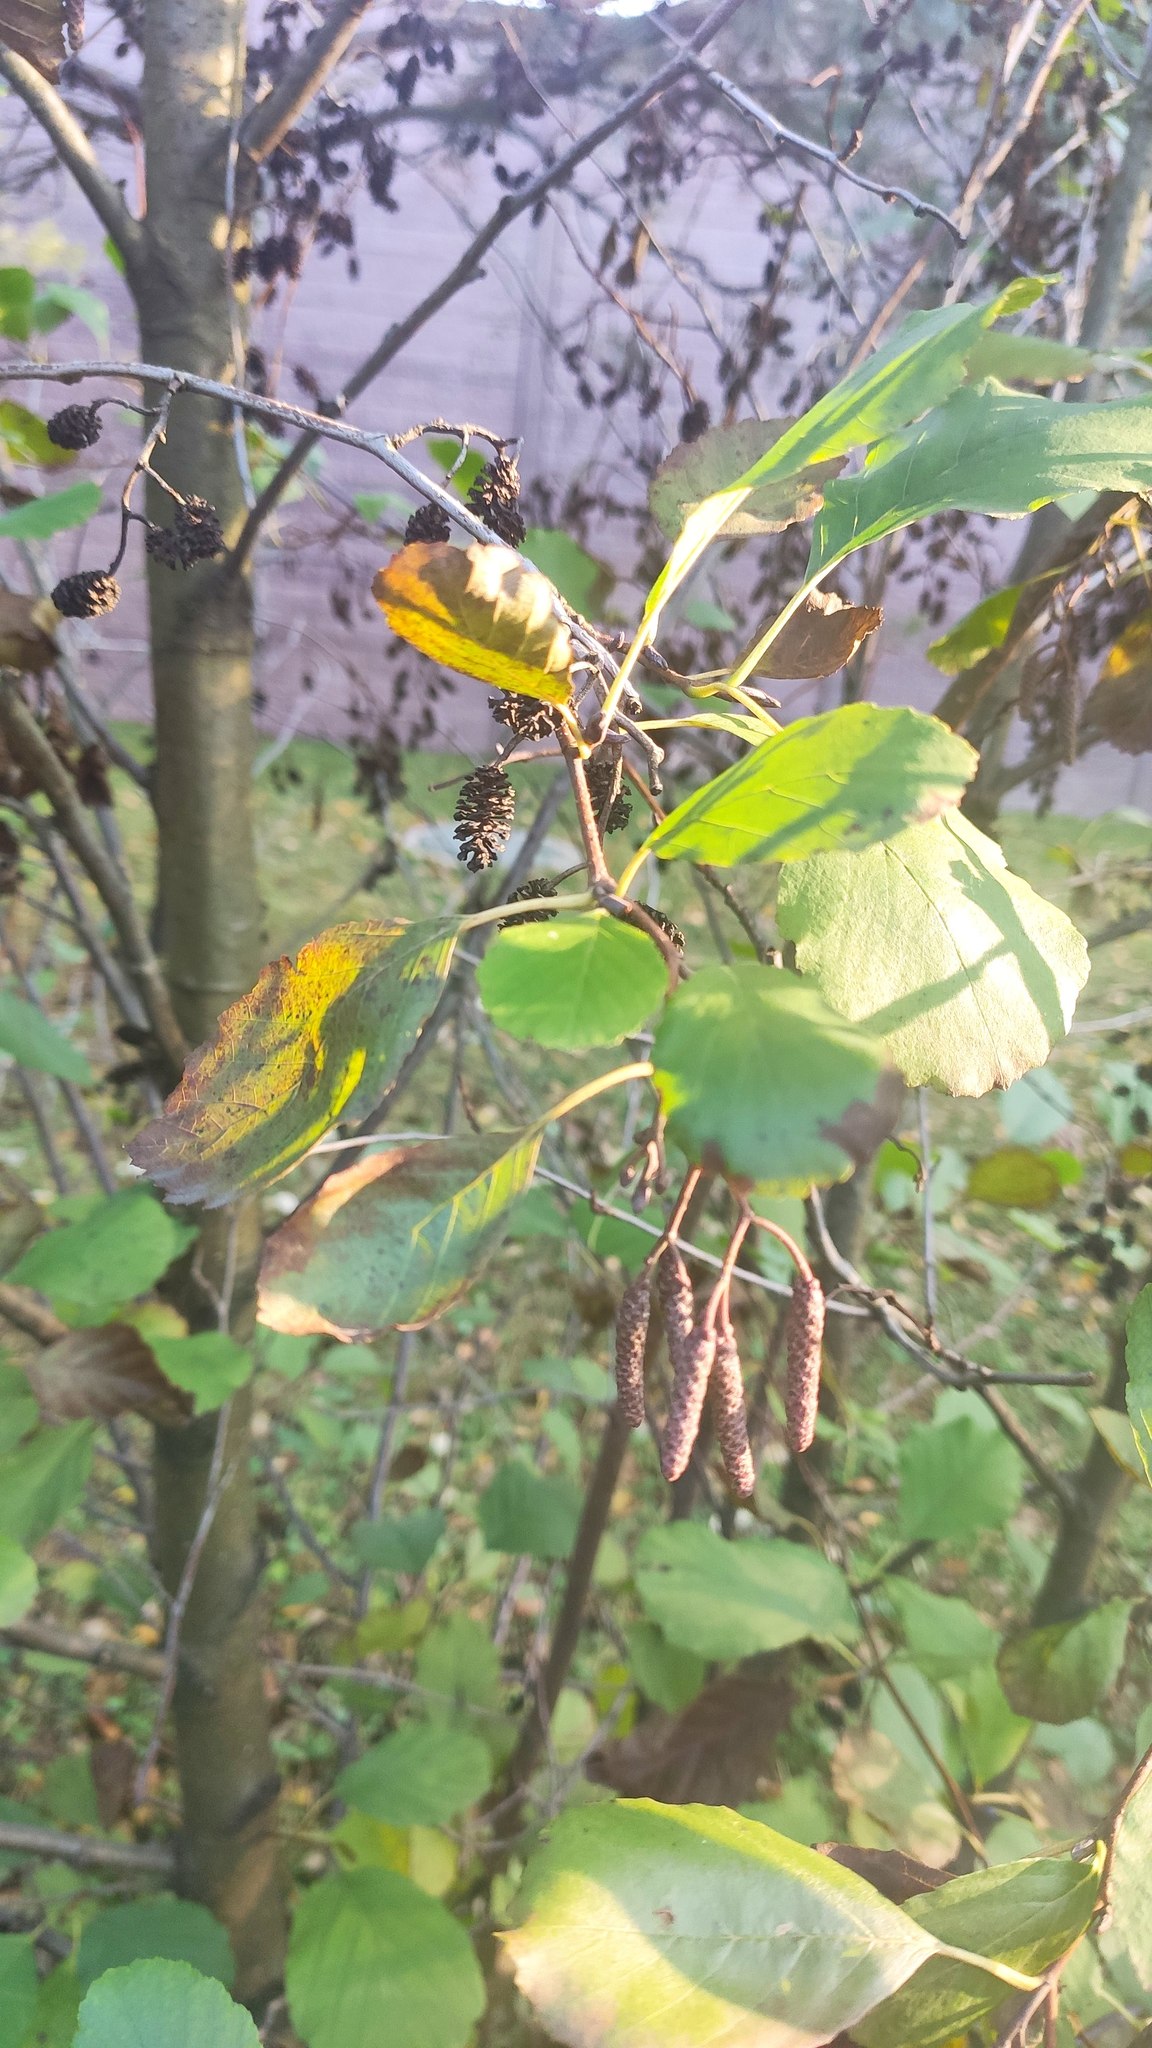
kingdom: Plantae
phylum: Tracheophyta
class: Magnoliopsida
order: Fagales
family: Betulaceae
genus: Alnus
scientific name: Alnus glutinosa
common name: Black alder
